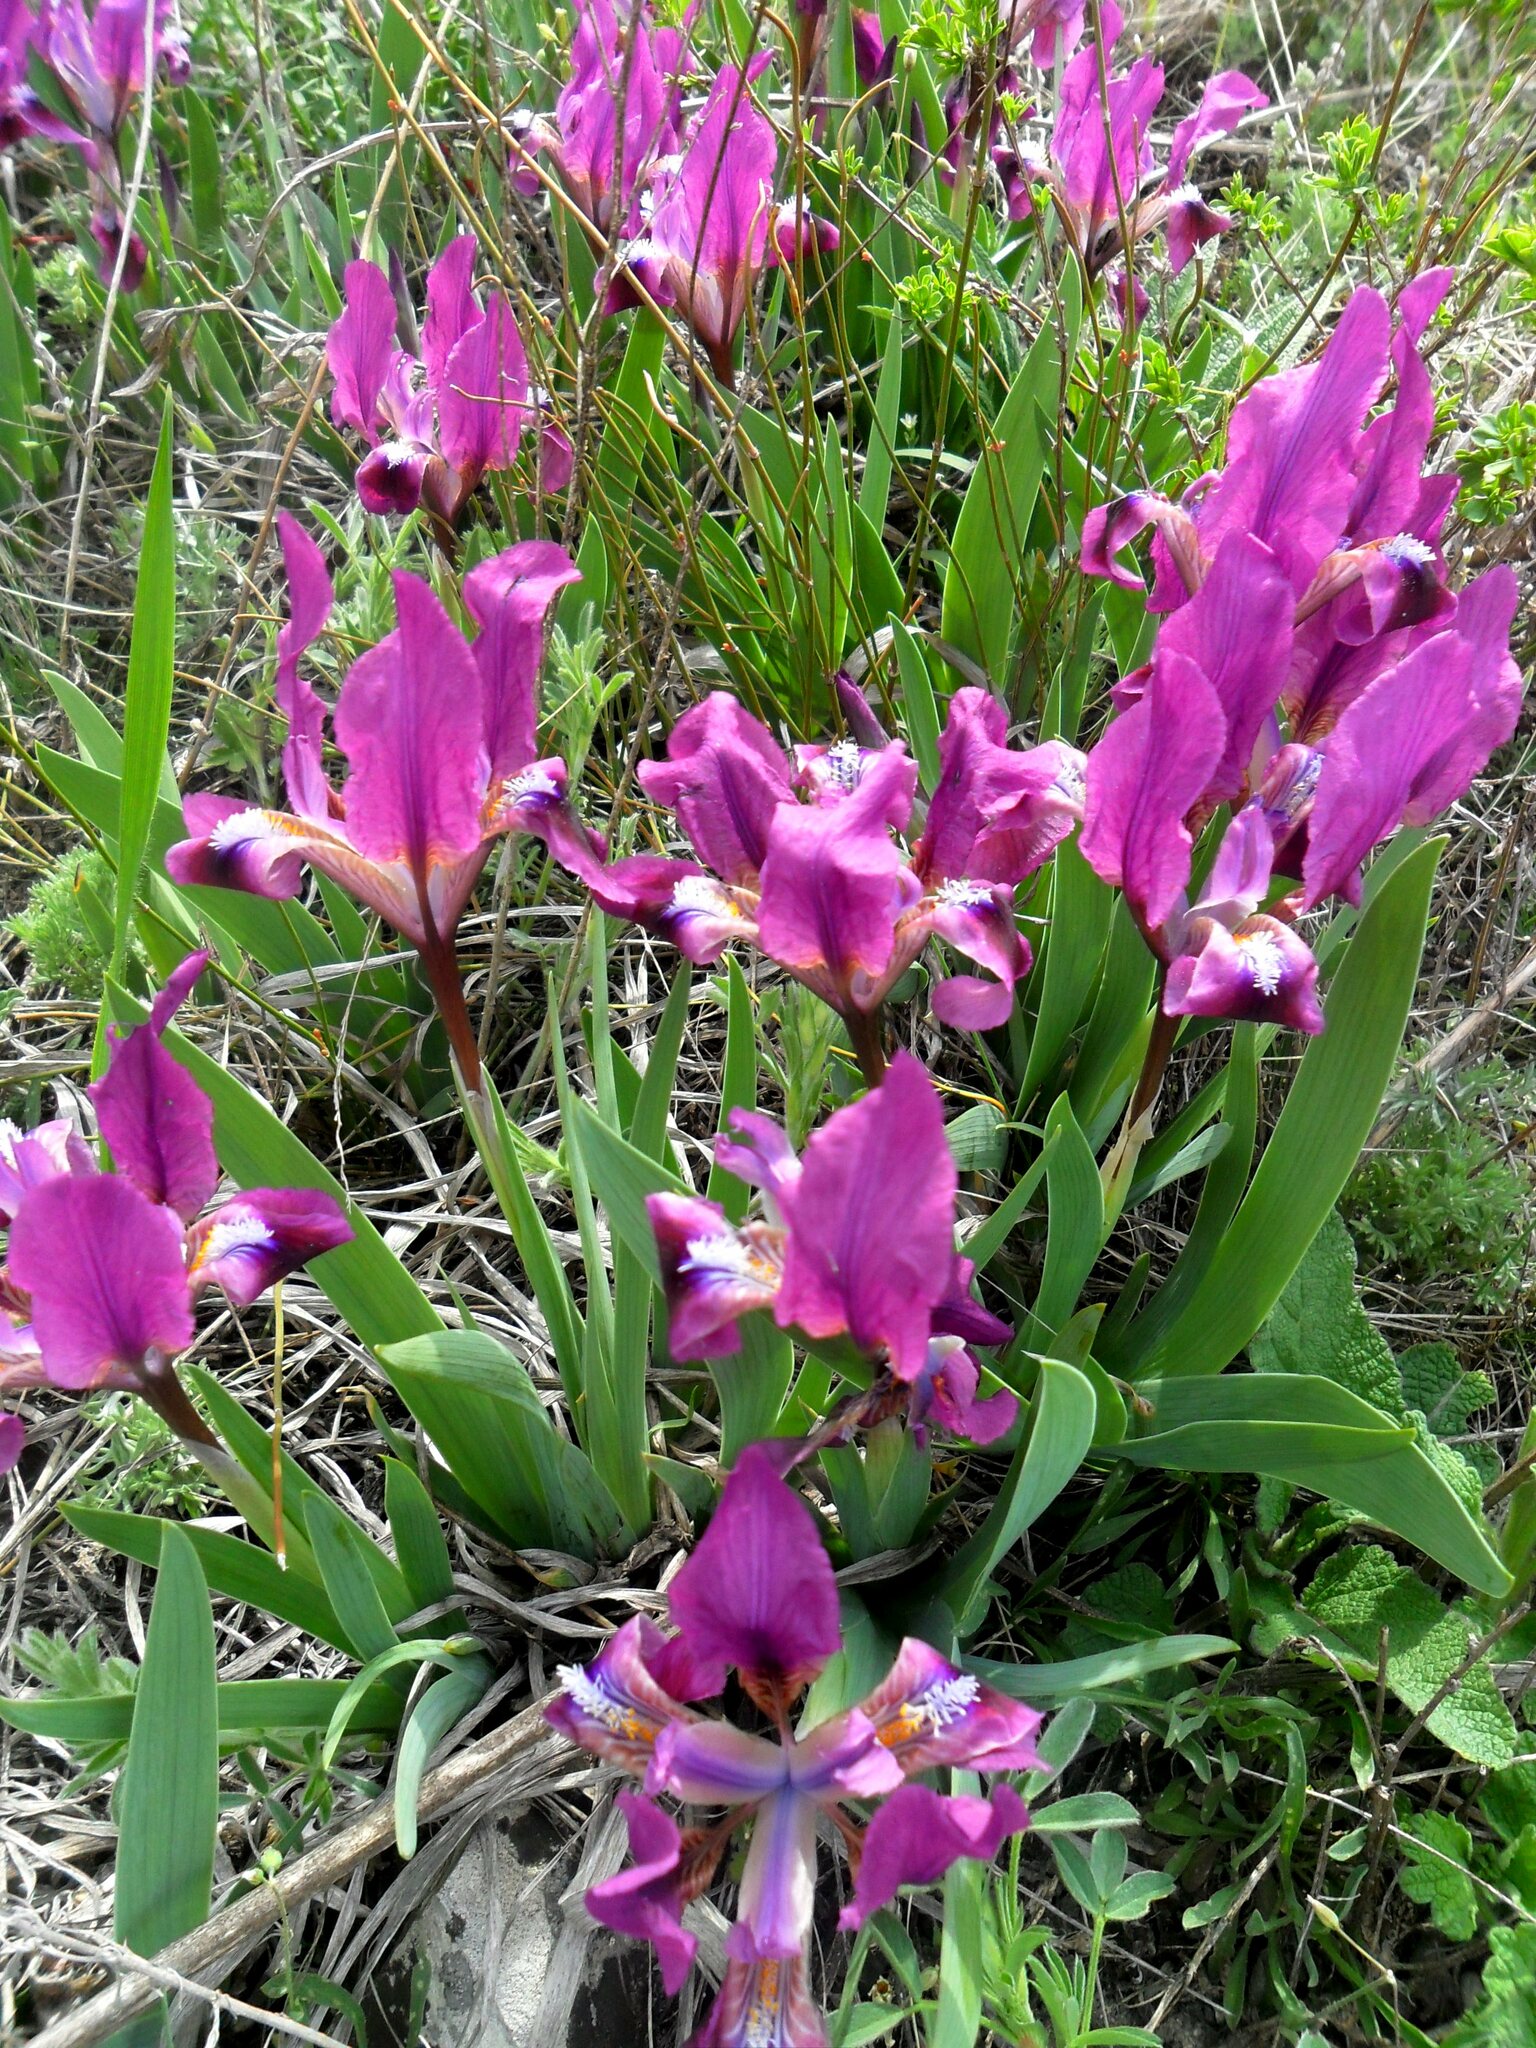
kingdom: Plantae
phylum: Tracheophyta
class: Liliopsida
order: Asparagales
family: Iridaceae
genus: Iris
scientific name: Iris pumila
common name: Dwarf iris
